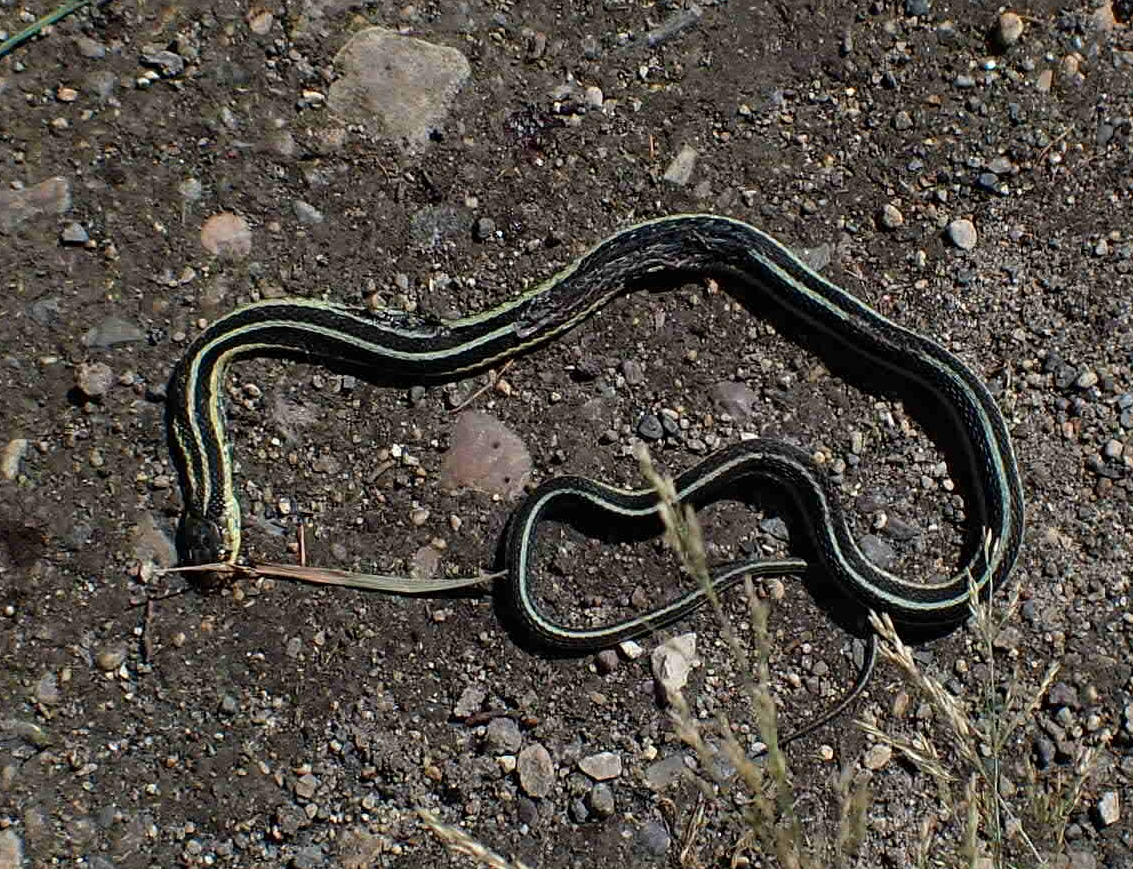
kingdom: Animalia
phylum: Chordata
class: Squamata
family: Colubridae
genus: Thamnophis
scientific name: Thamnophis sirtalis
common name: Common garter snake
